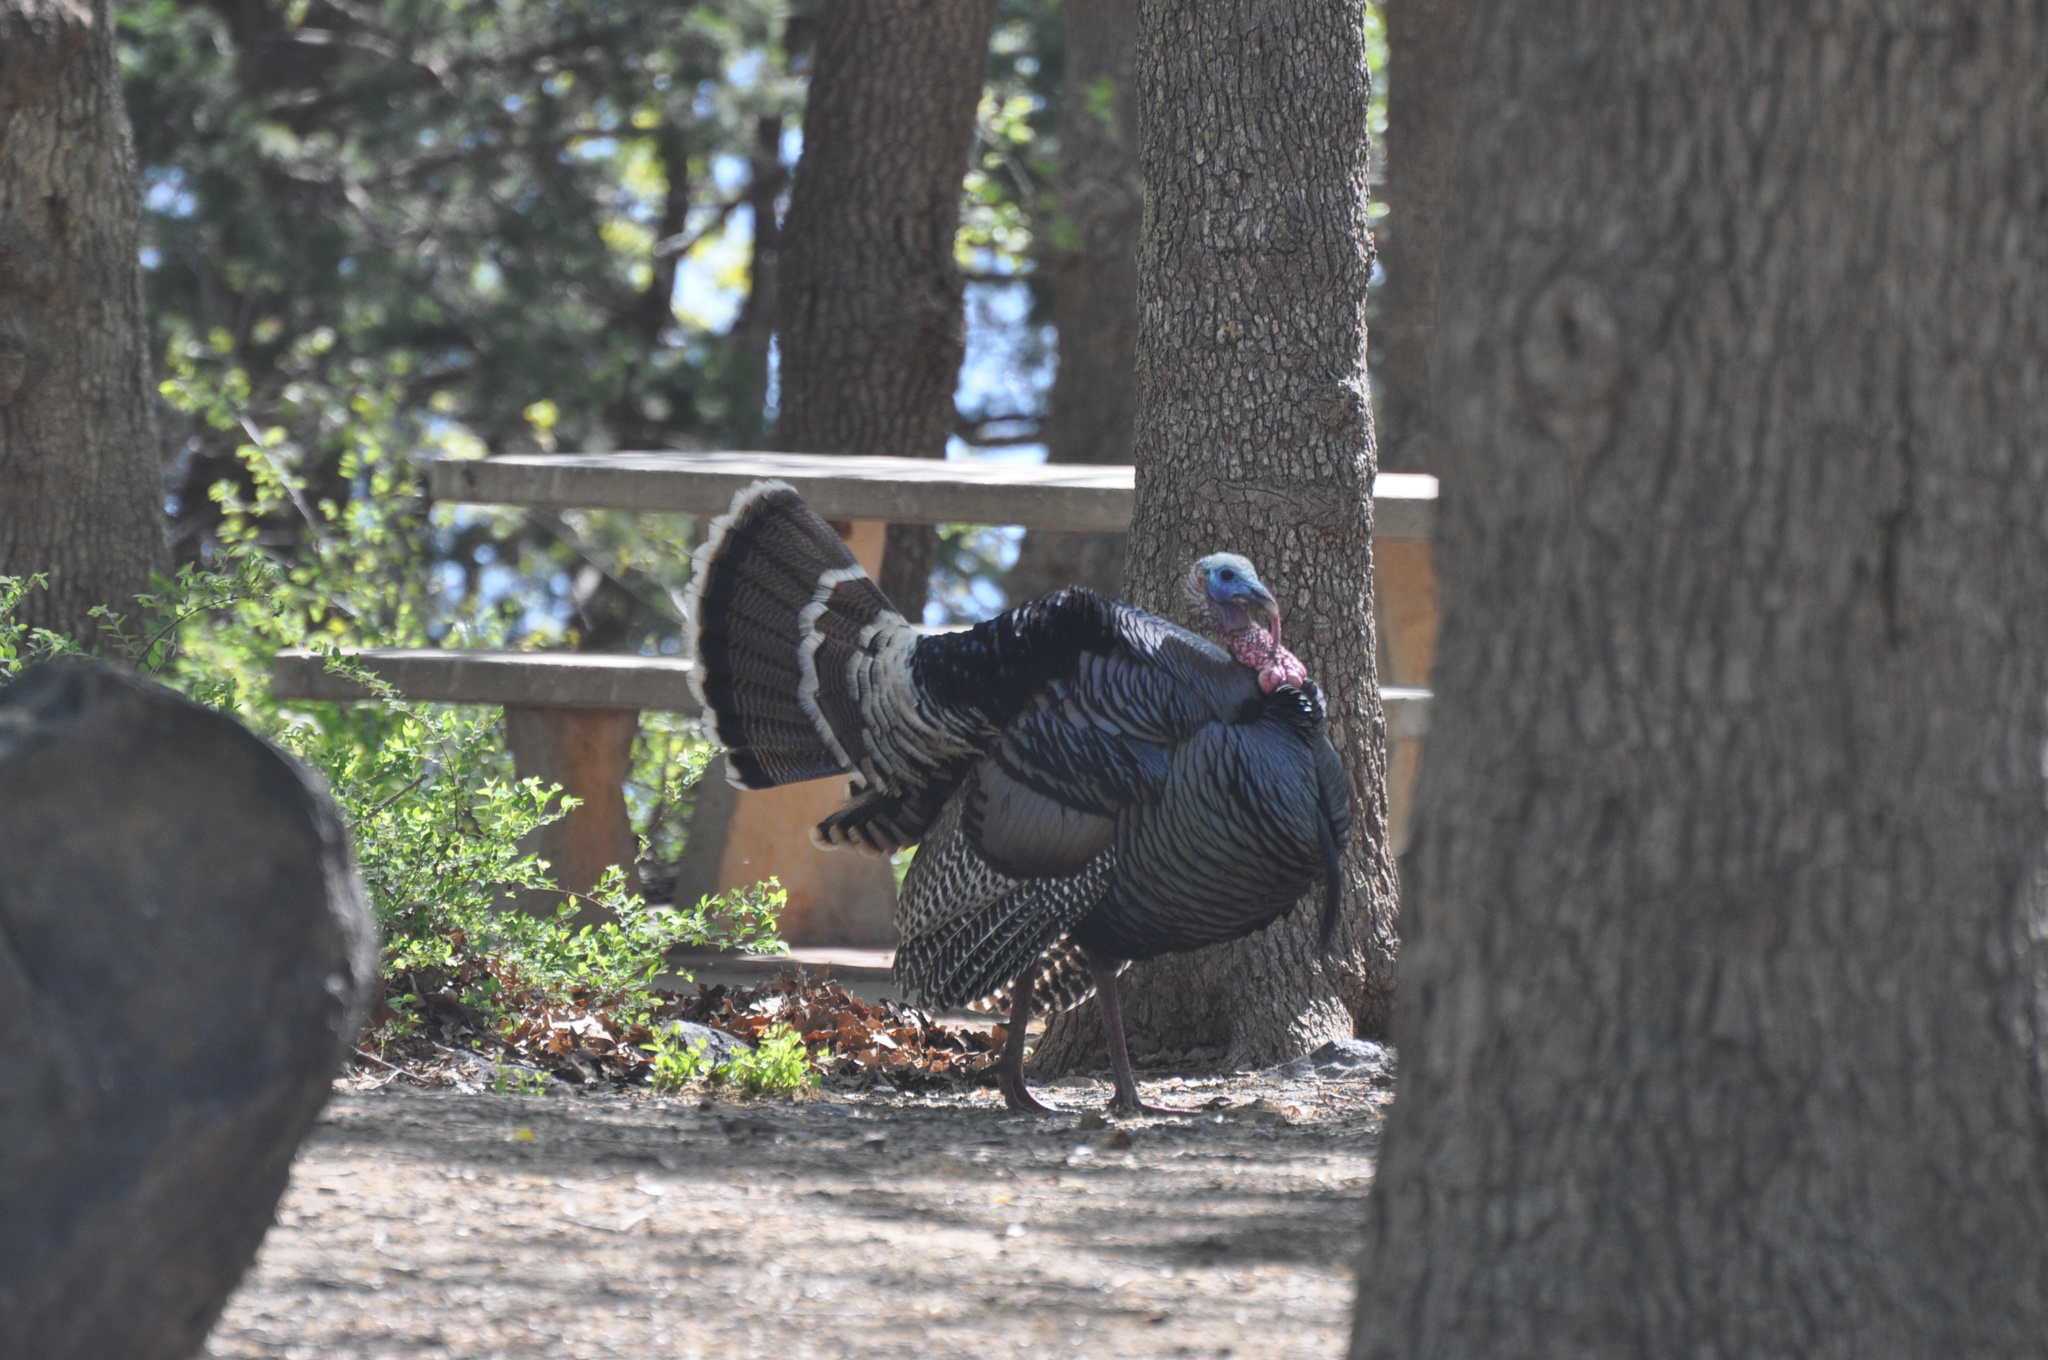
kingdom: Animalia
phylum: Chordata
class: Aves
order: Galliformes
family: Phasianidae
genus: Meleagris
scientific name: Meleagris gallopavo
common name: Wild turkey
